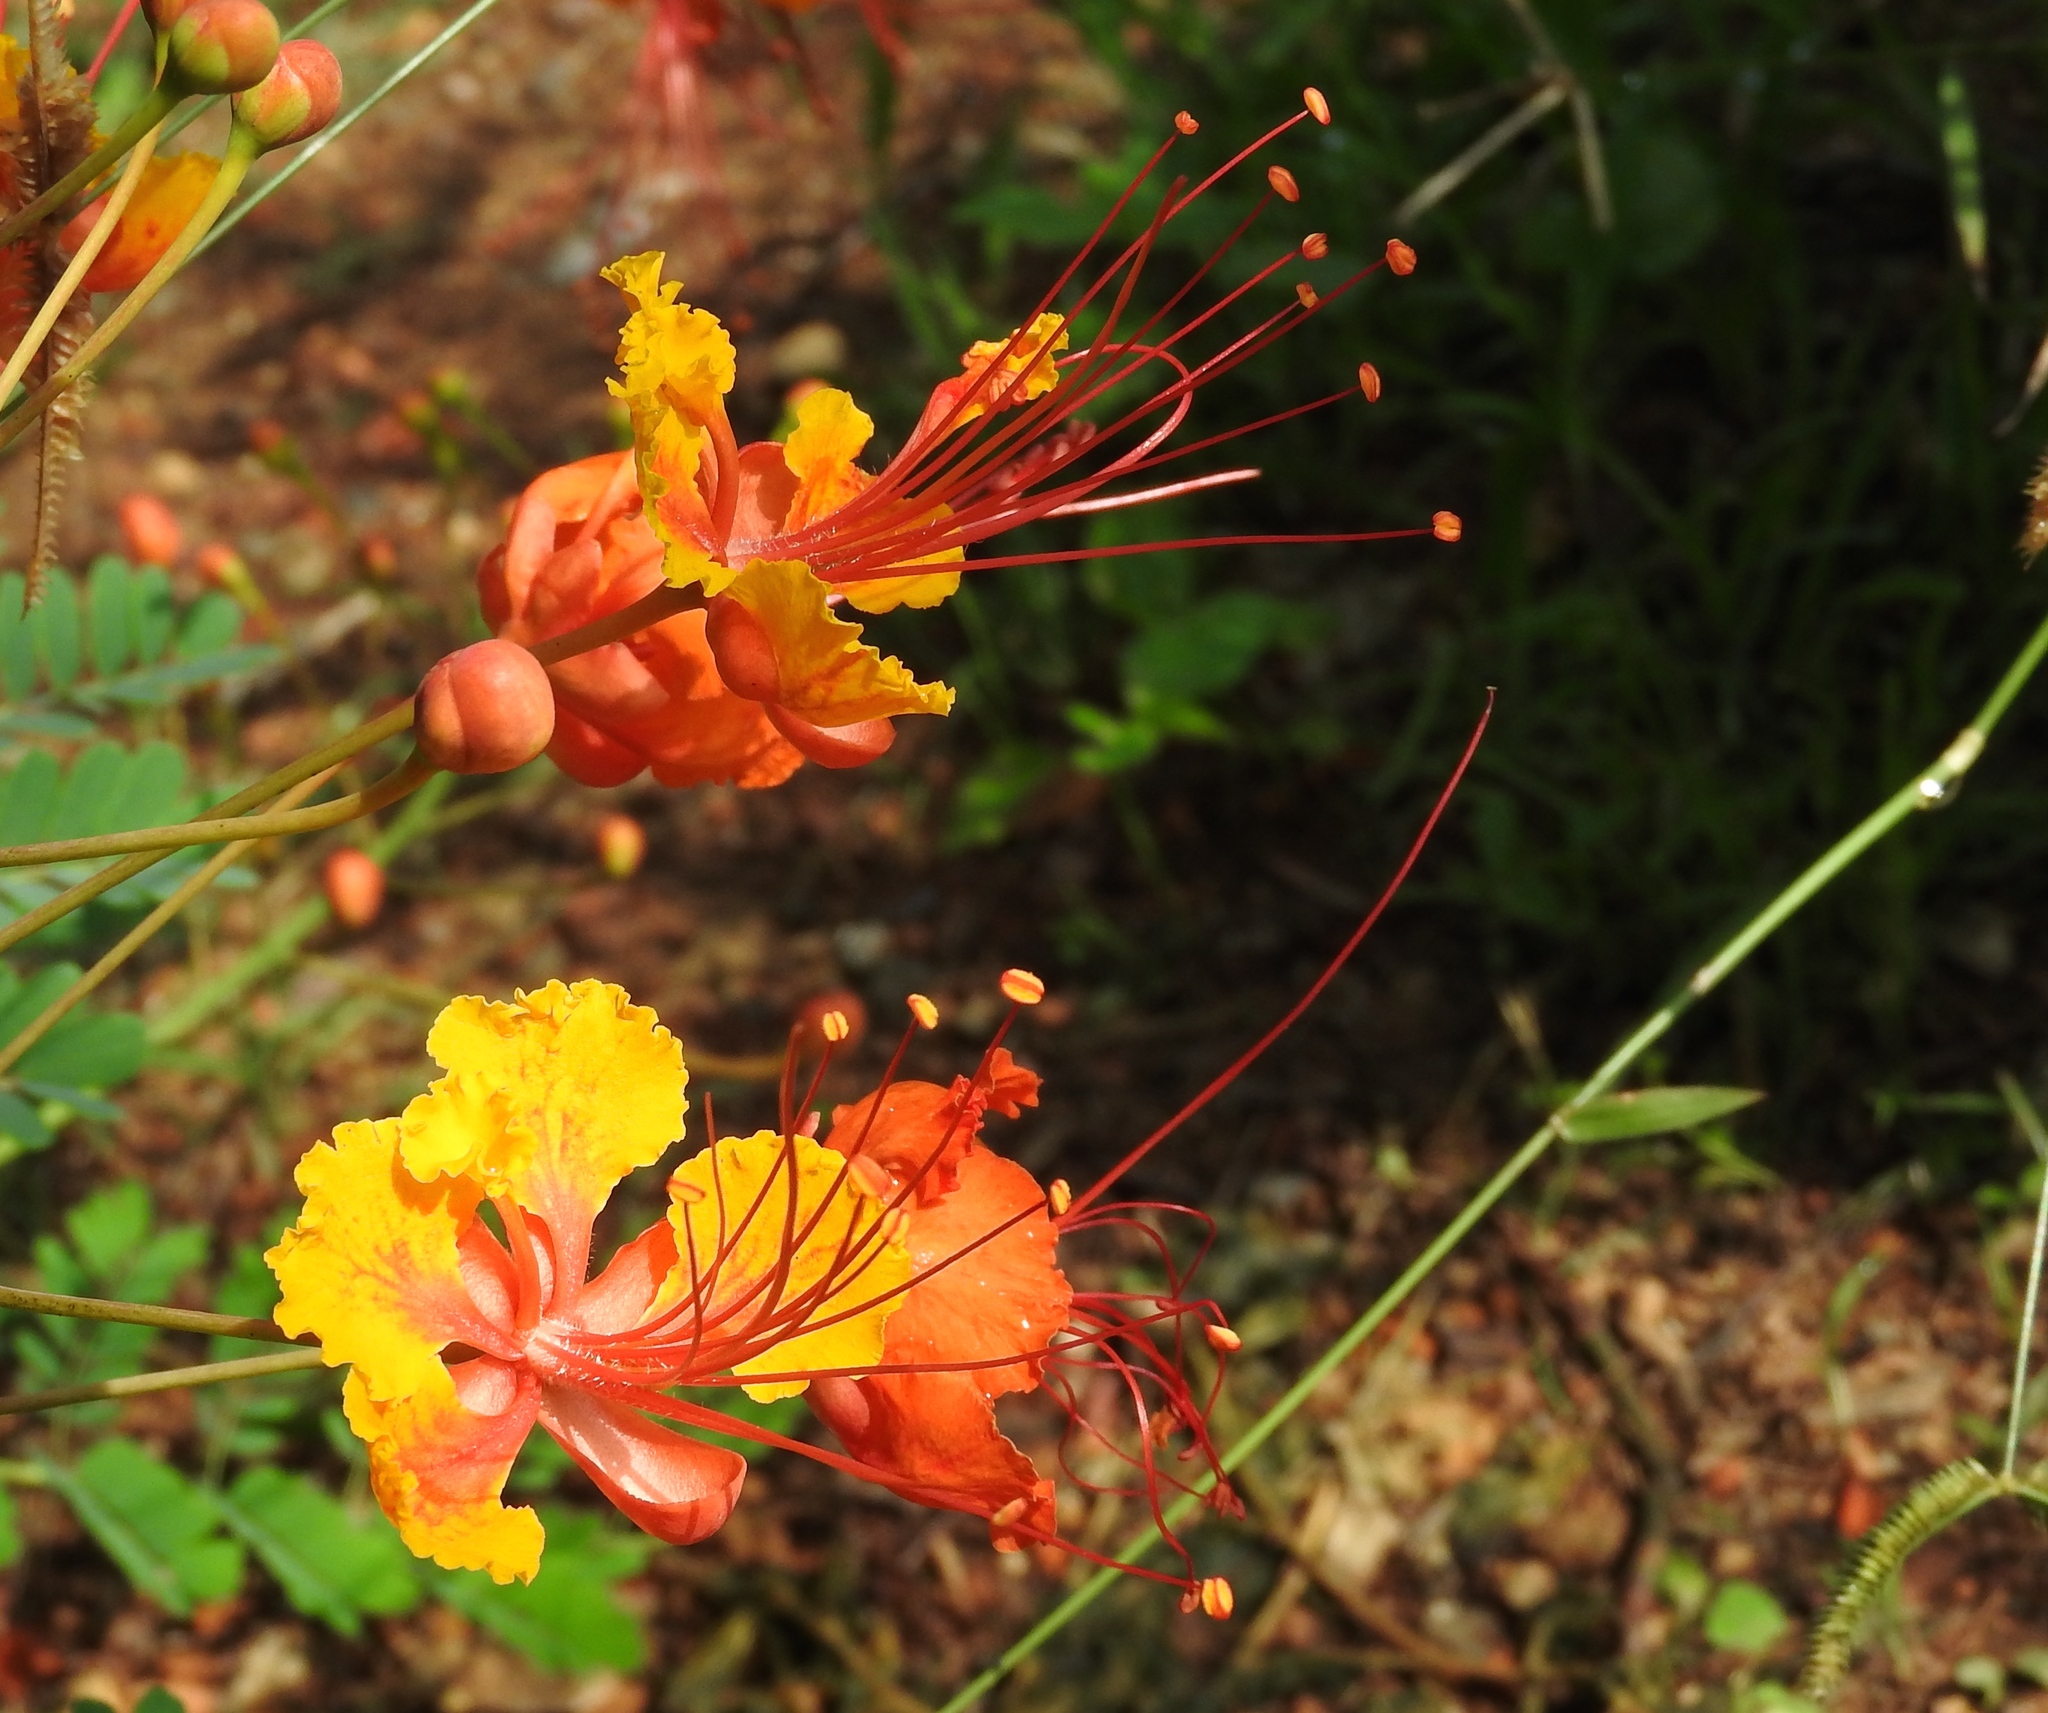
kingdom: Plantae
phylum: Tracheophyta
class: Magnoliopsida
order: Fabales
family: Fabaceae
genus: Caesalpinia
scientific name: Caesalpinia pulcherrima
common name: Pride-of-barbados
